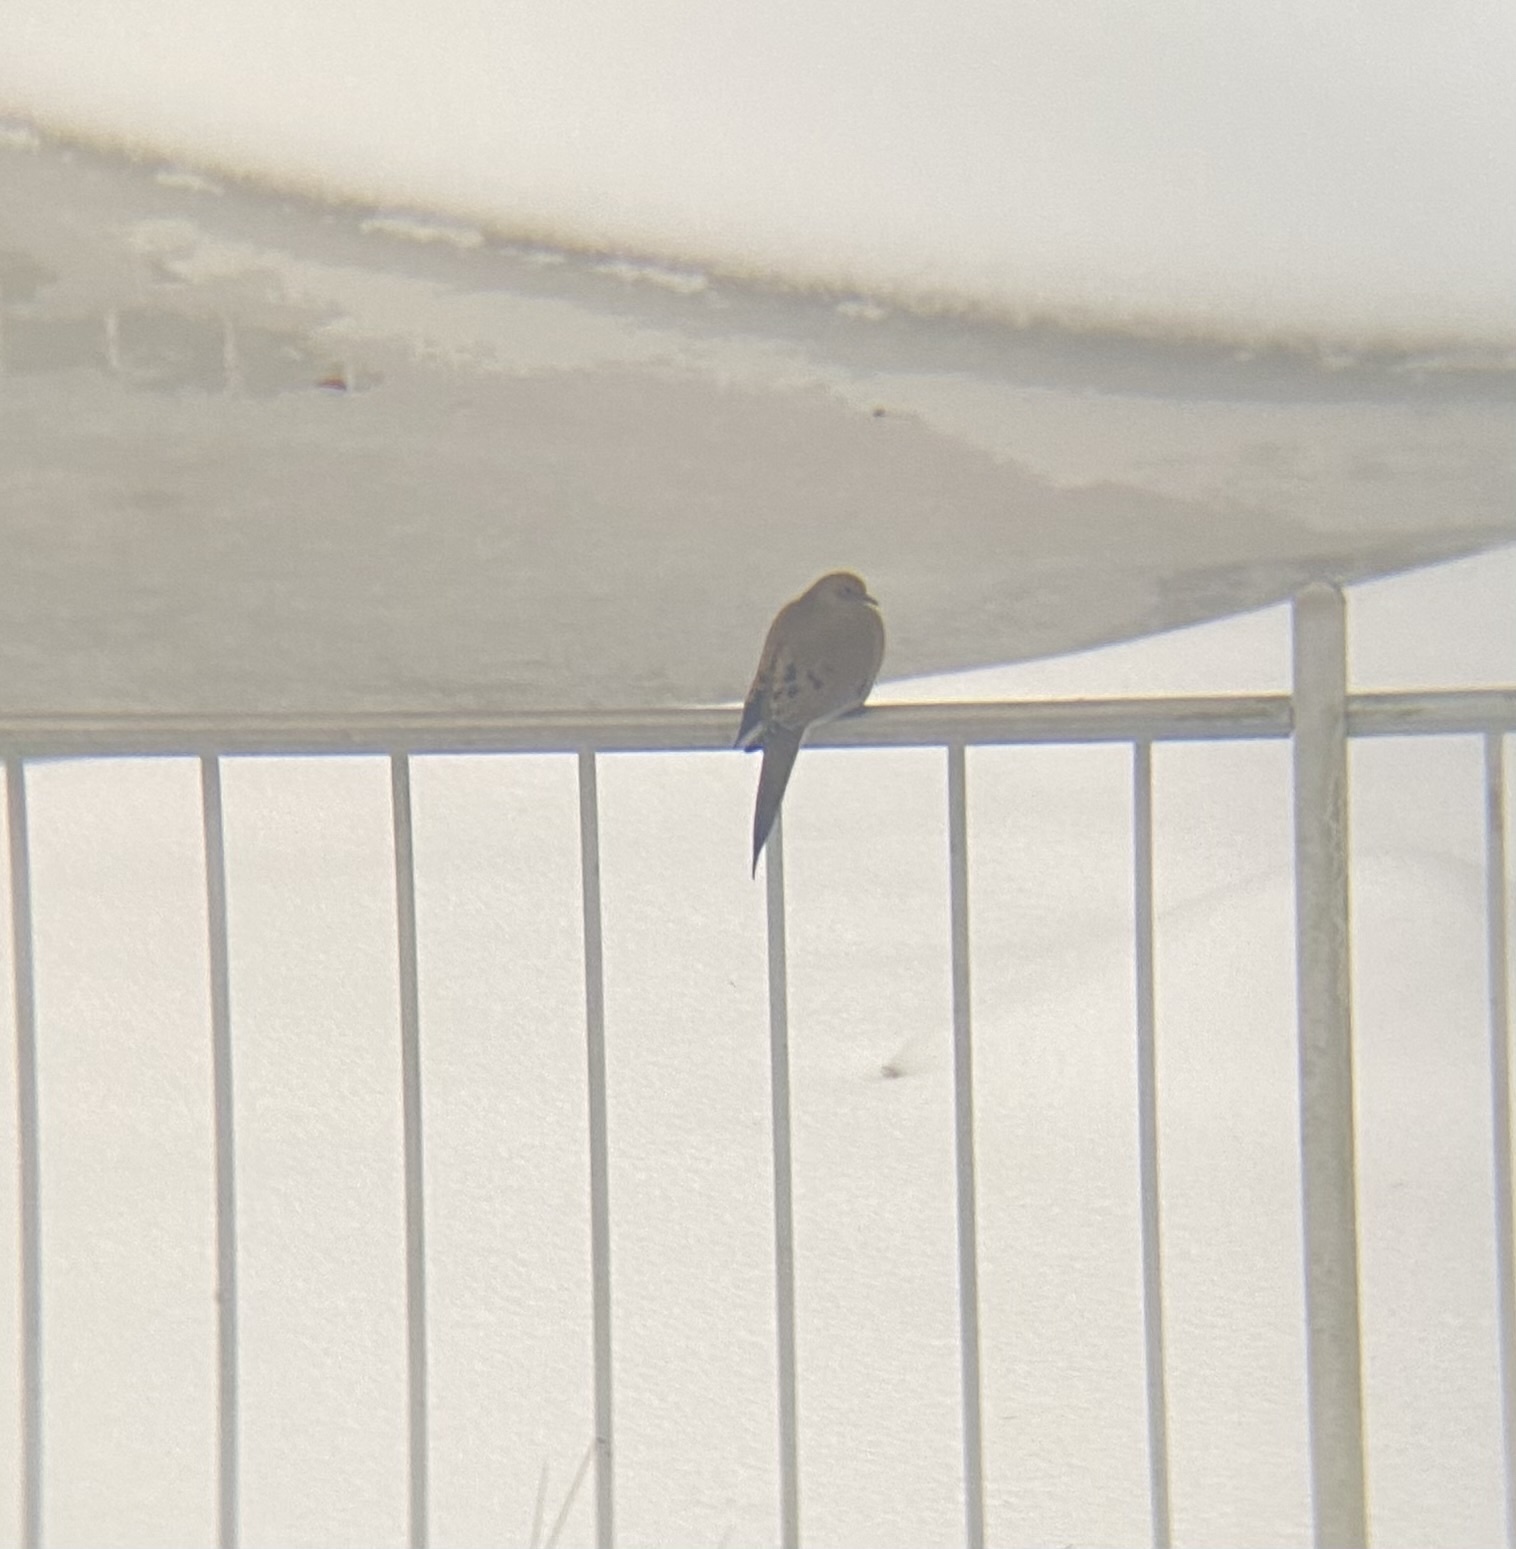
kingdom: Animalia
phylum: Chordata
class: Aves
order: Columbiformes
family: Columbidae
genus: Zenaida
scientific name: Zenaida macroura
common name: Mourning dove
